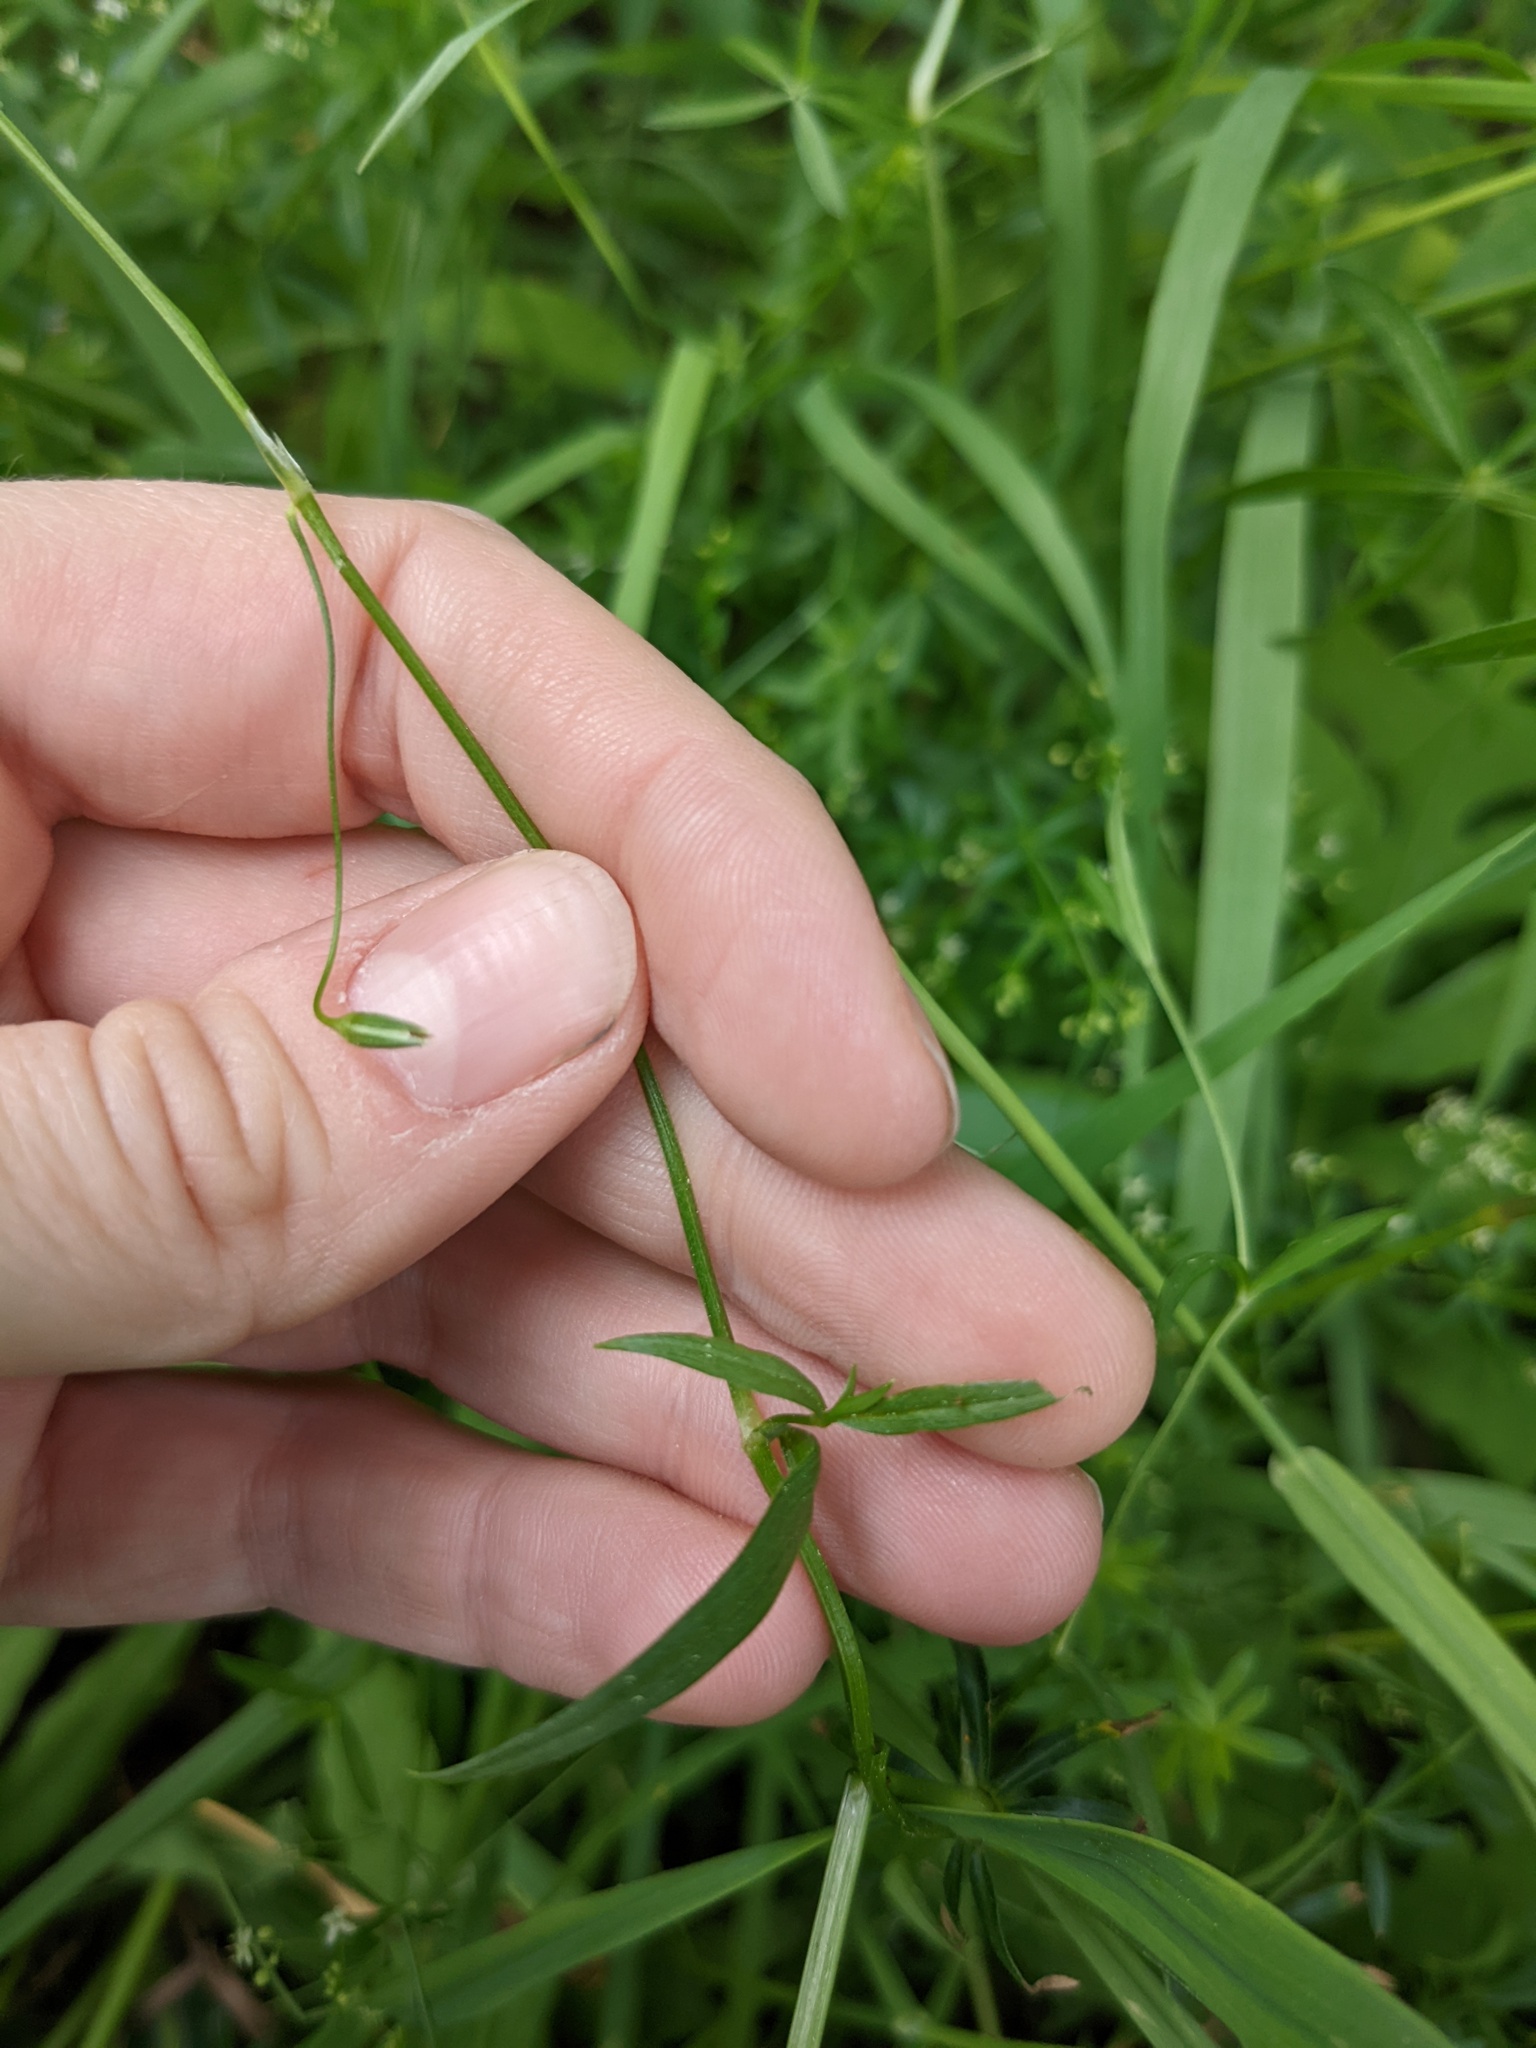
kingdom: Plantae
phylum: Tracheophyta
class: Magnoliopsida
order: Caryophyllales
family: Caryophyllaceae
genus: Stellaria
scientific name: Stellaria graminea
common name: Grass-like starwort
